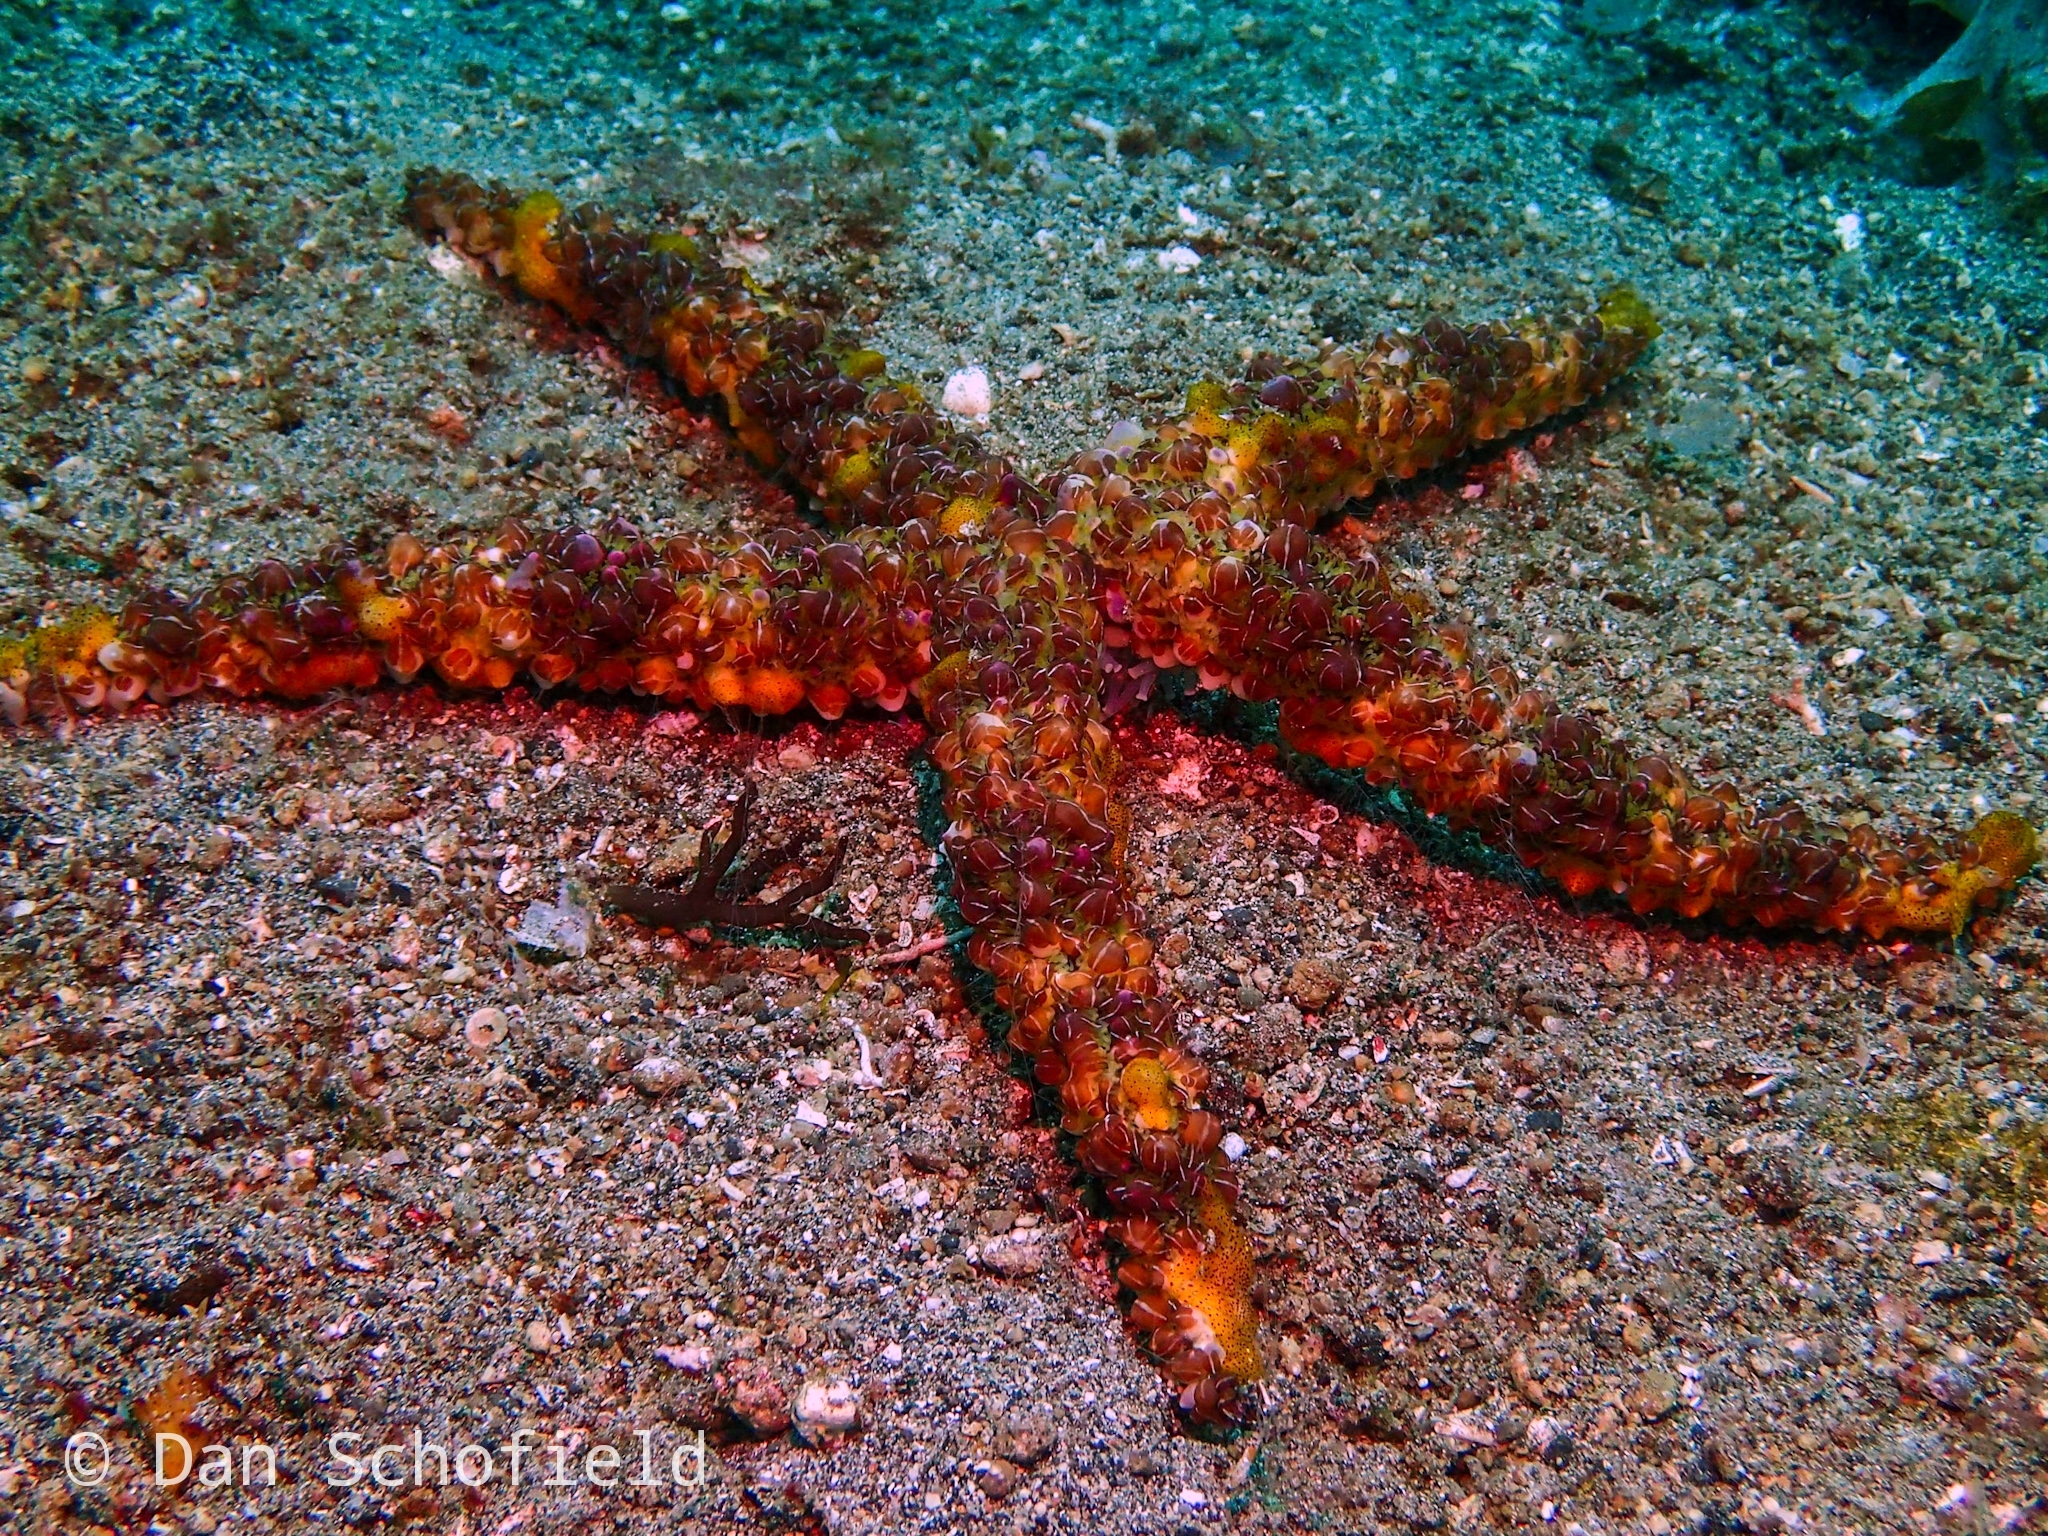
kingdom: Animalia
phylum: Echinodermata
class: Asteroidea
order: Spinulosida
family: Echinasteridae
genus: Echinaster
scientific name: Echinaster callosus
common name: Banded bubble star
